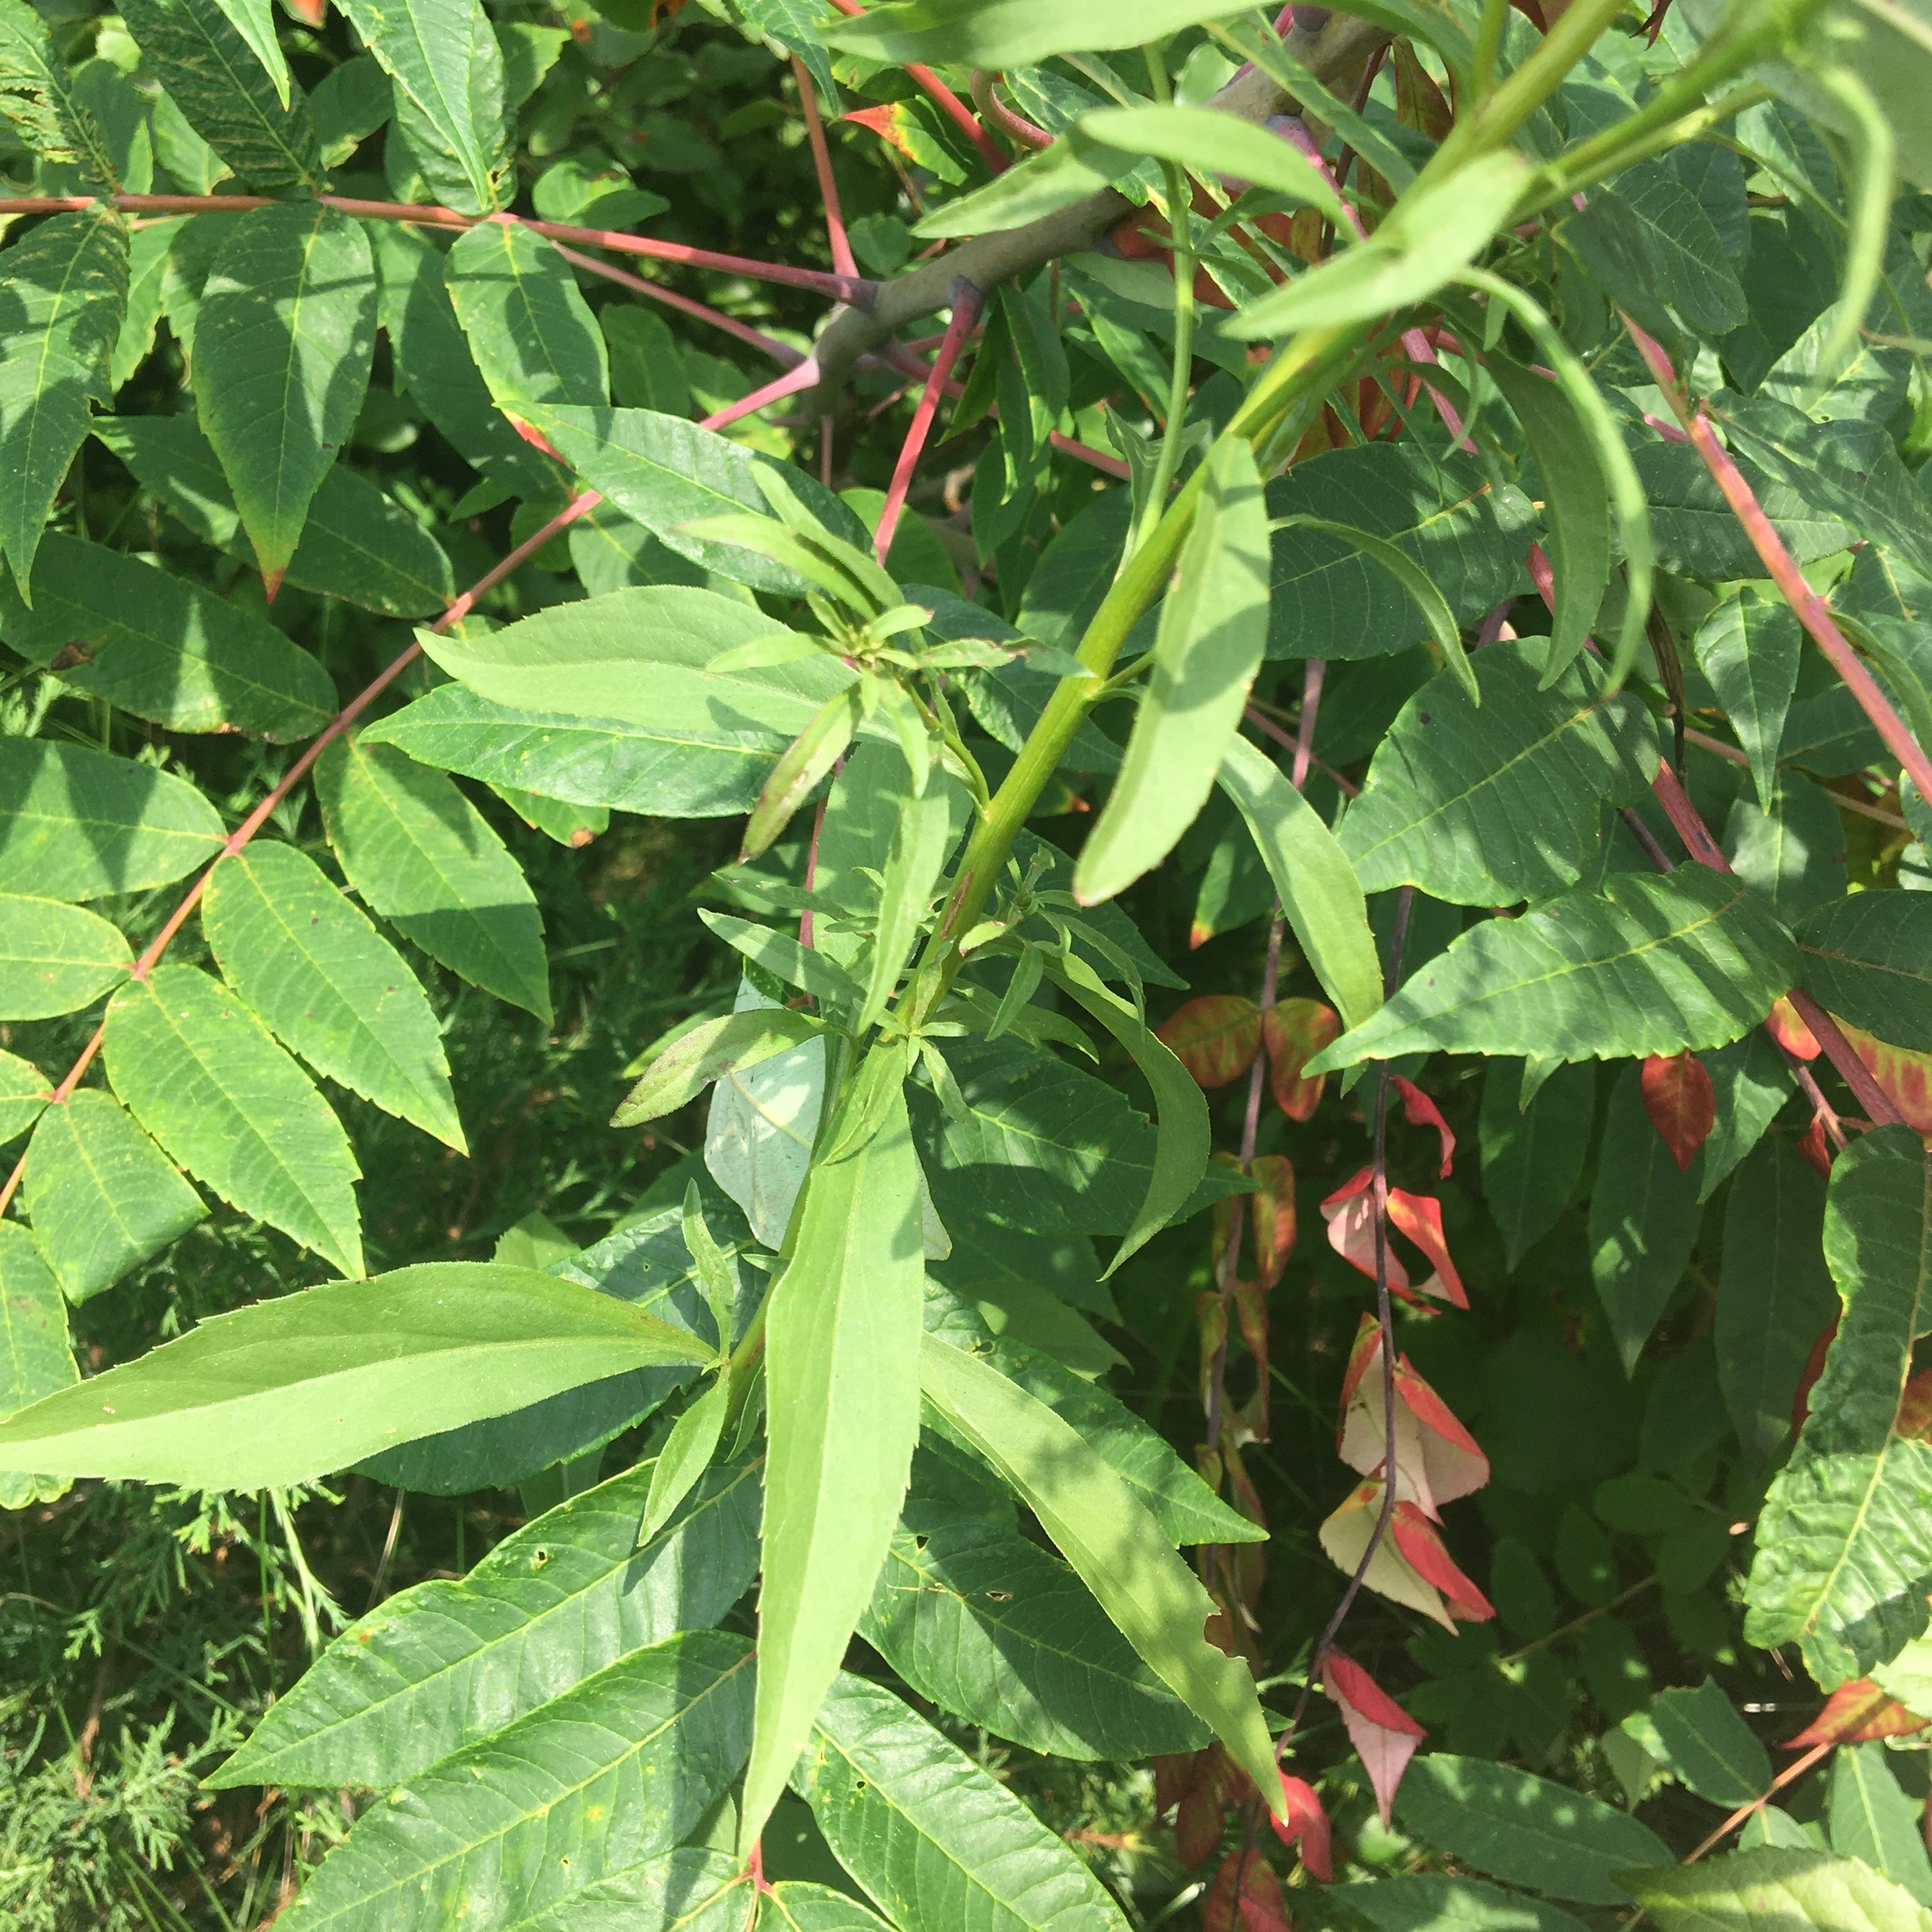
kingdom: Plantae
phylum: Tracheophyta
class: Magnoliopsida
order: Asterales
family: Asteraceae
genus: Solidago
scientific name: Solidago juncea
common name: Early goldenrod
